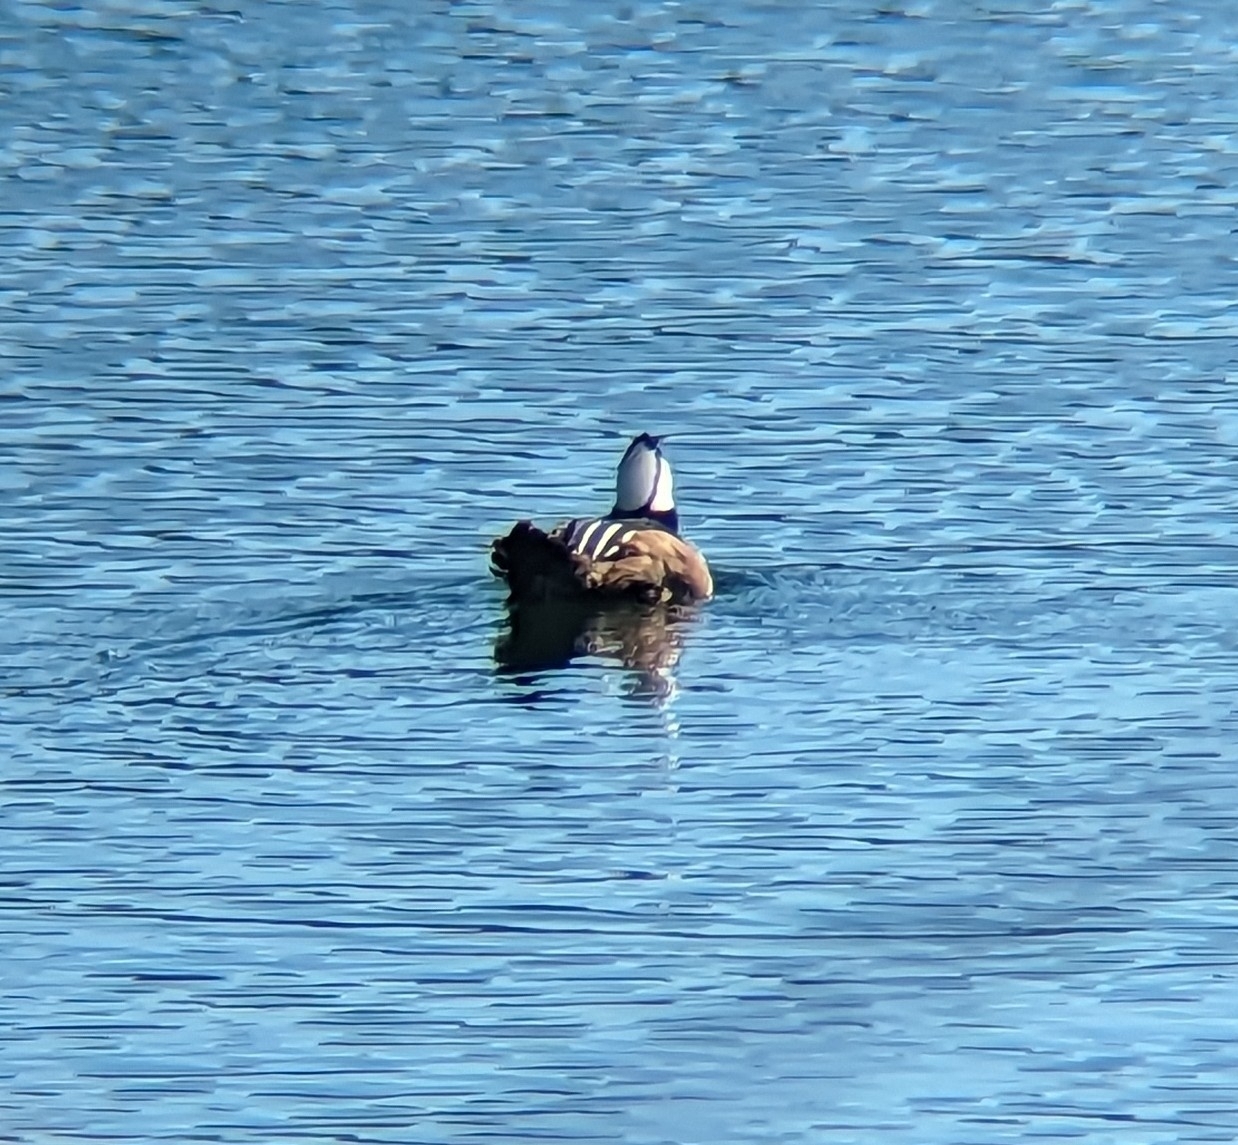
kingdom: Animalia
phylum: Chordata
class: Aves
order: Anseriformes
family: Anatidae
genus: Lophodytes
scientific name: Lophodytes cucullatus
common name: Hooded merganser
